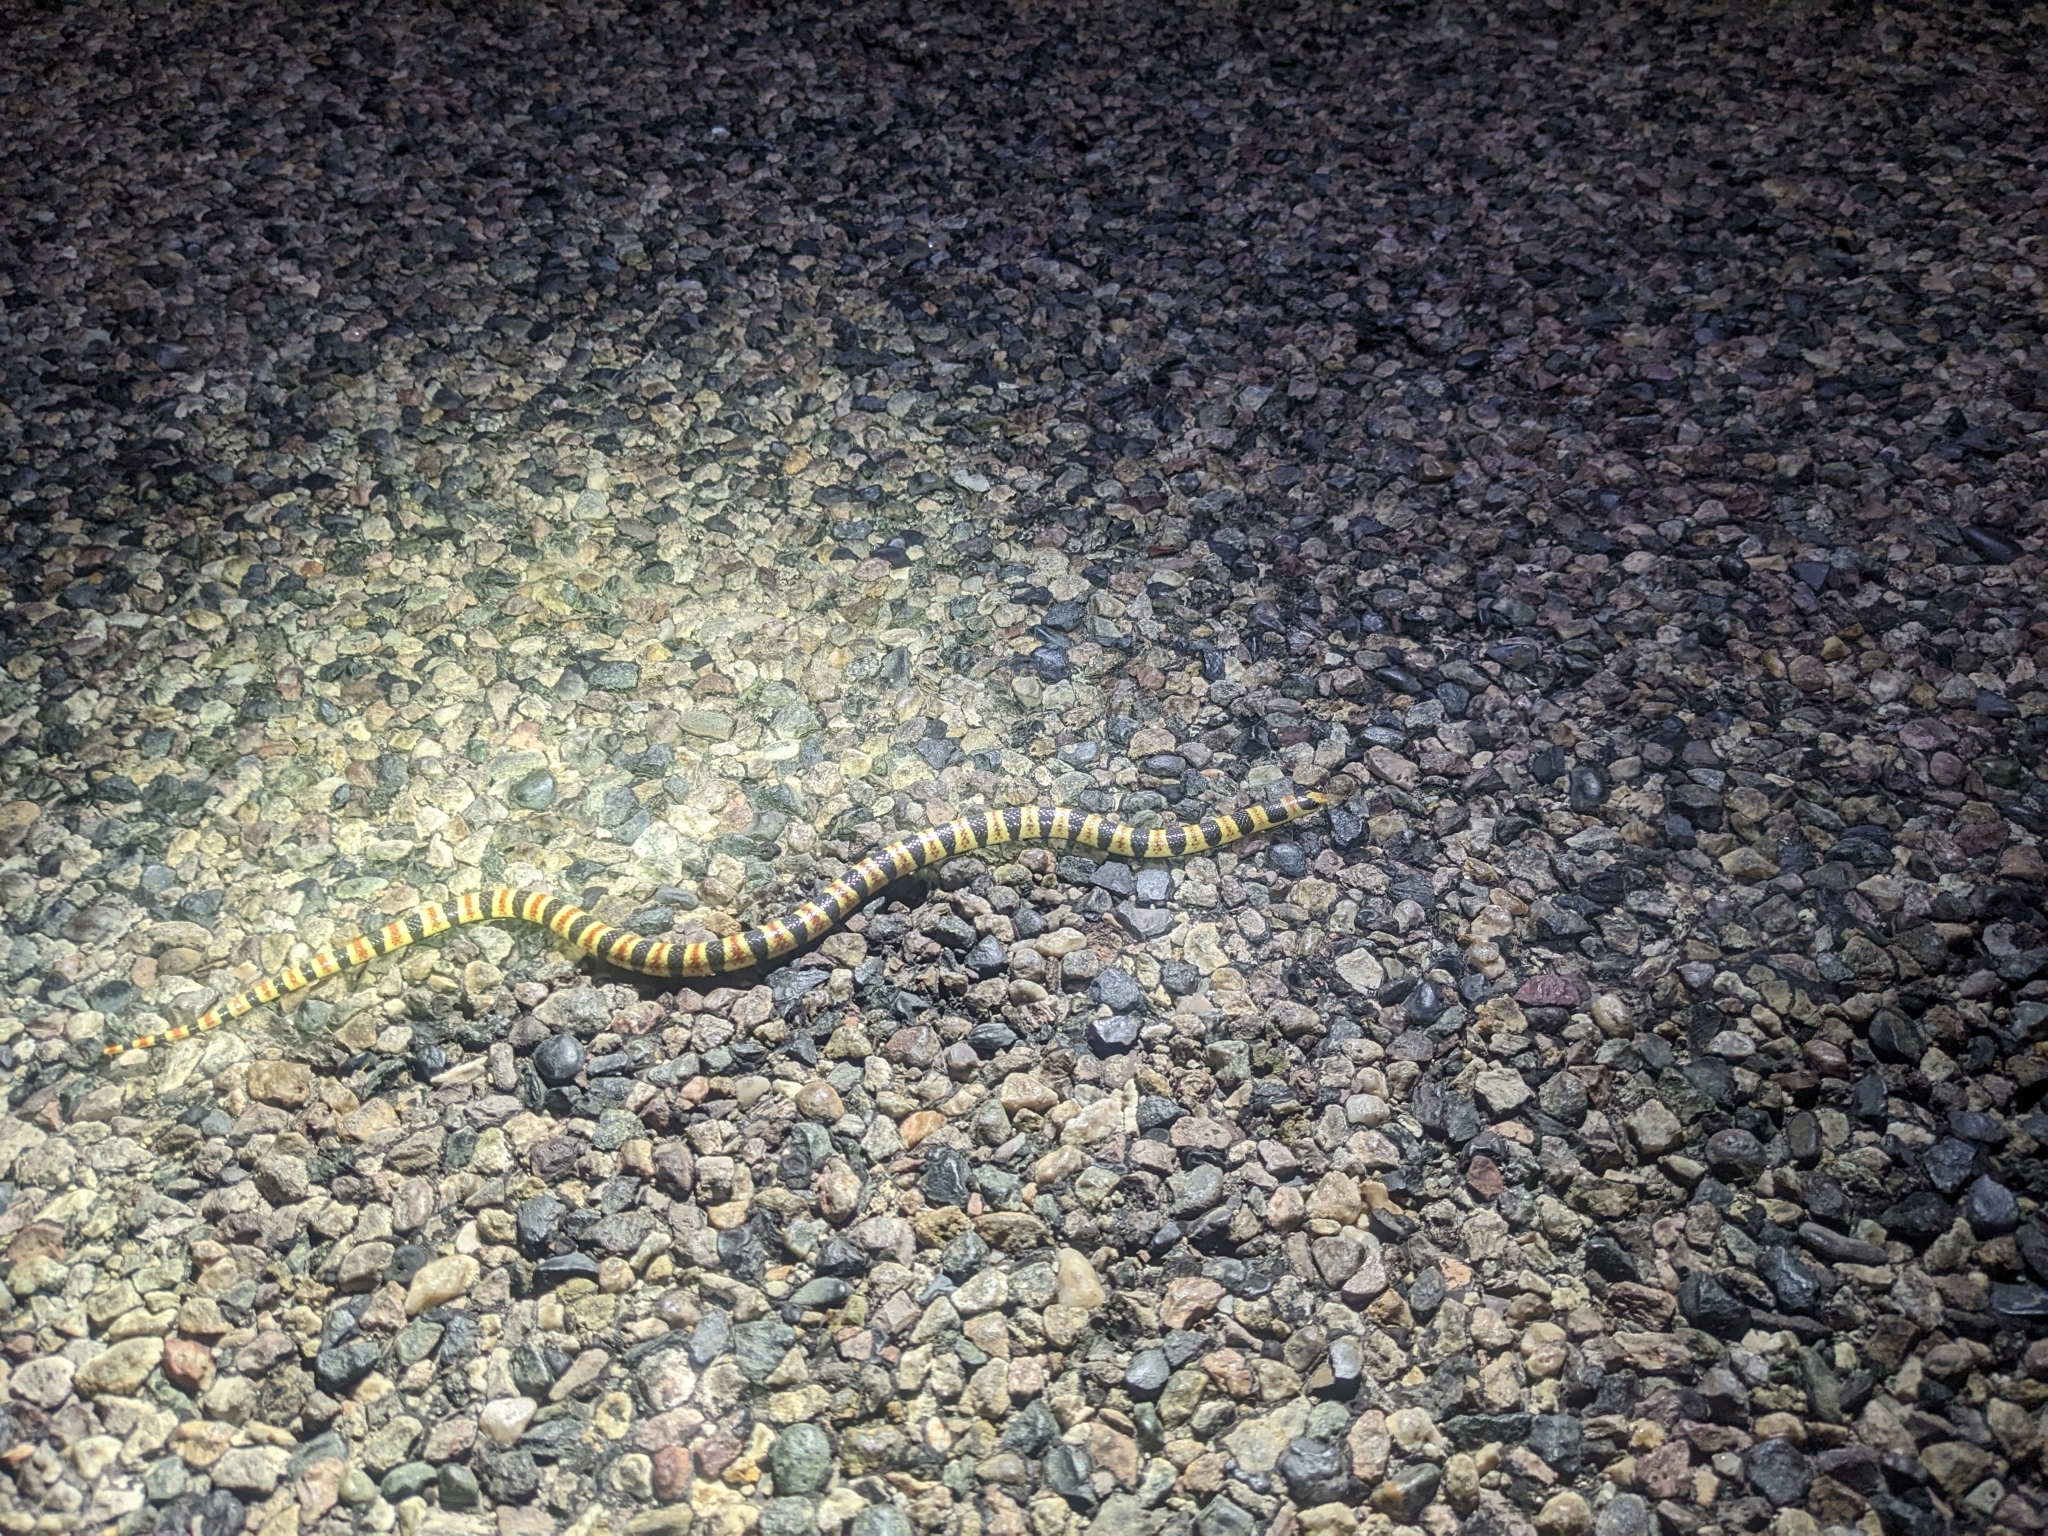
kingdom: Animalia
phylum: Chordata
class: Squamata
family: Colubridae
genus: Sonora
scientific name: Sonora annulata
